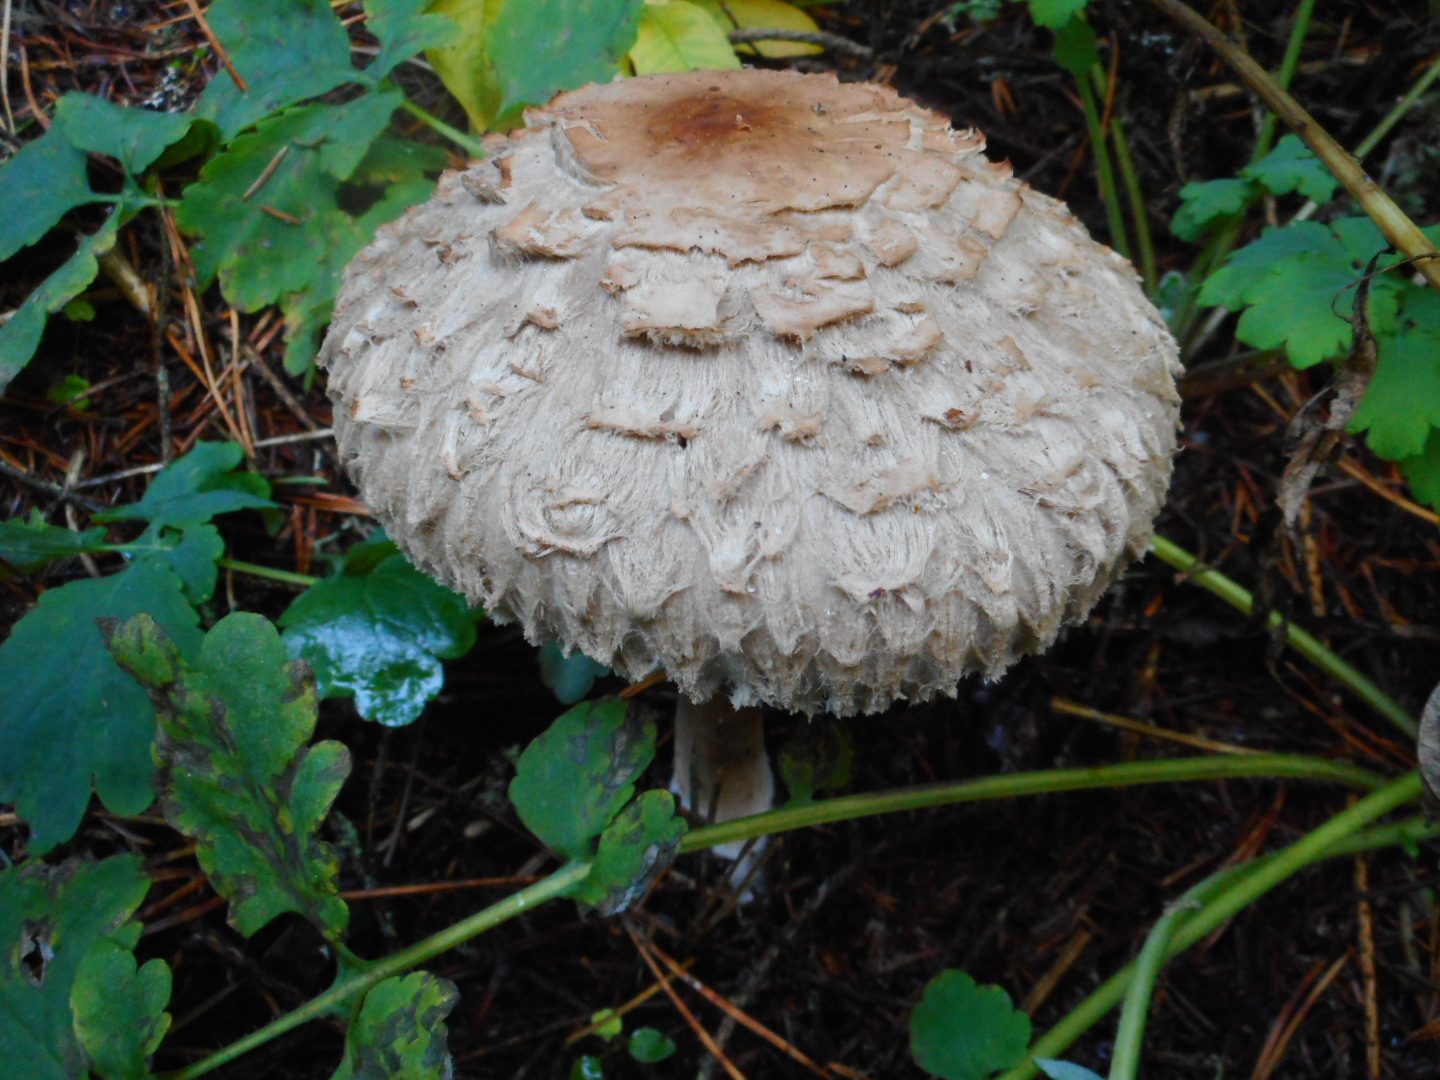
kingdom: Fungi
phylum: Basidiomycota
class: Agaricomycetes
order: Agaricales
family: Agaricaceae
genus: Chlorophyllum
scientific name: Chlorophyllum olivieri
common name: Conifer parasol
